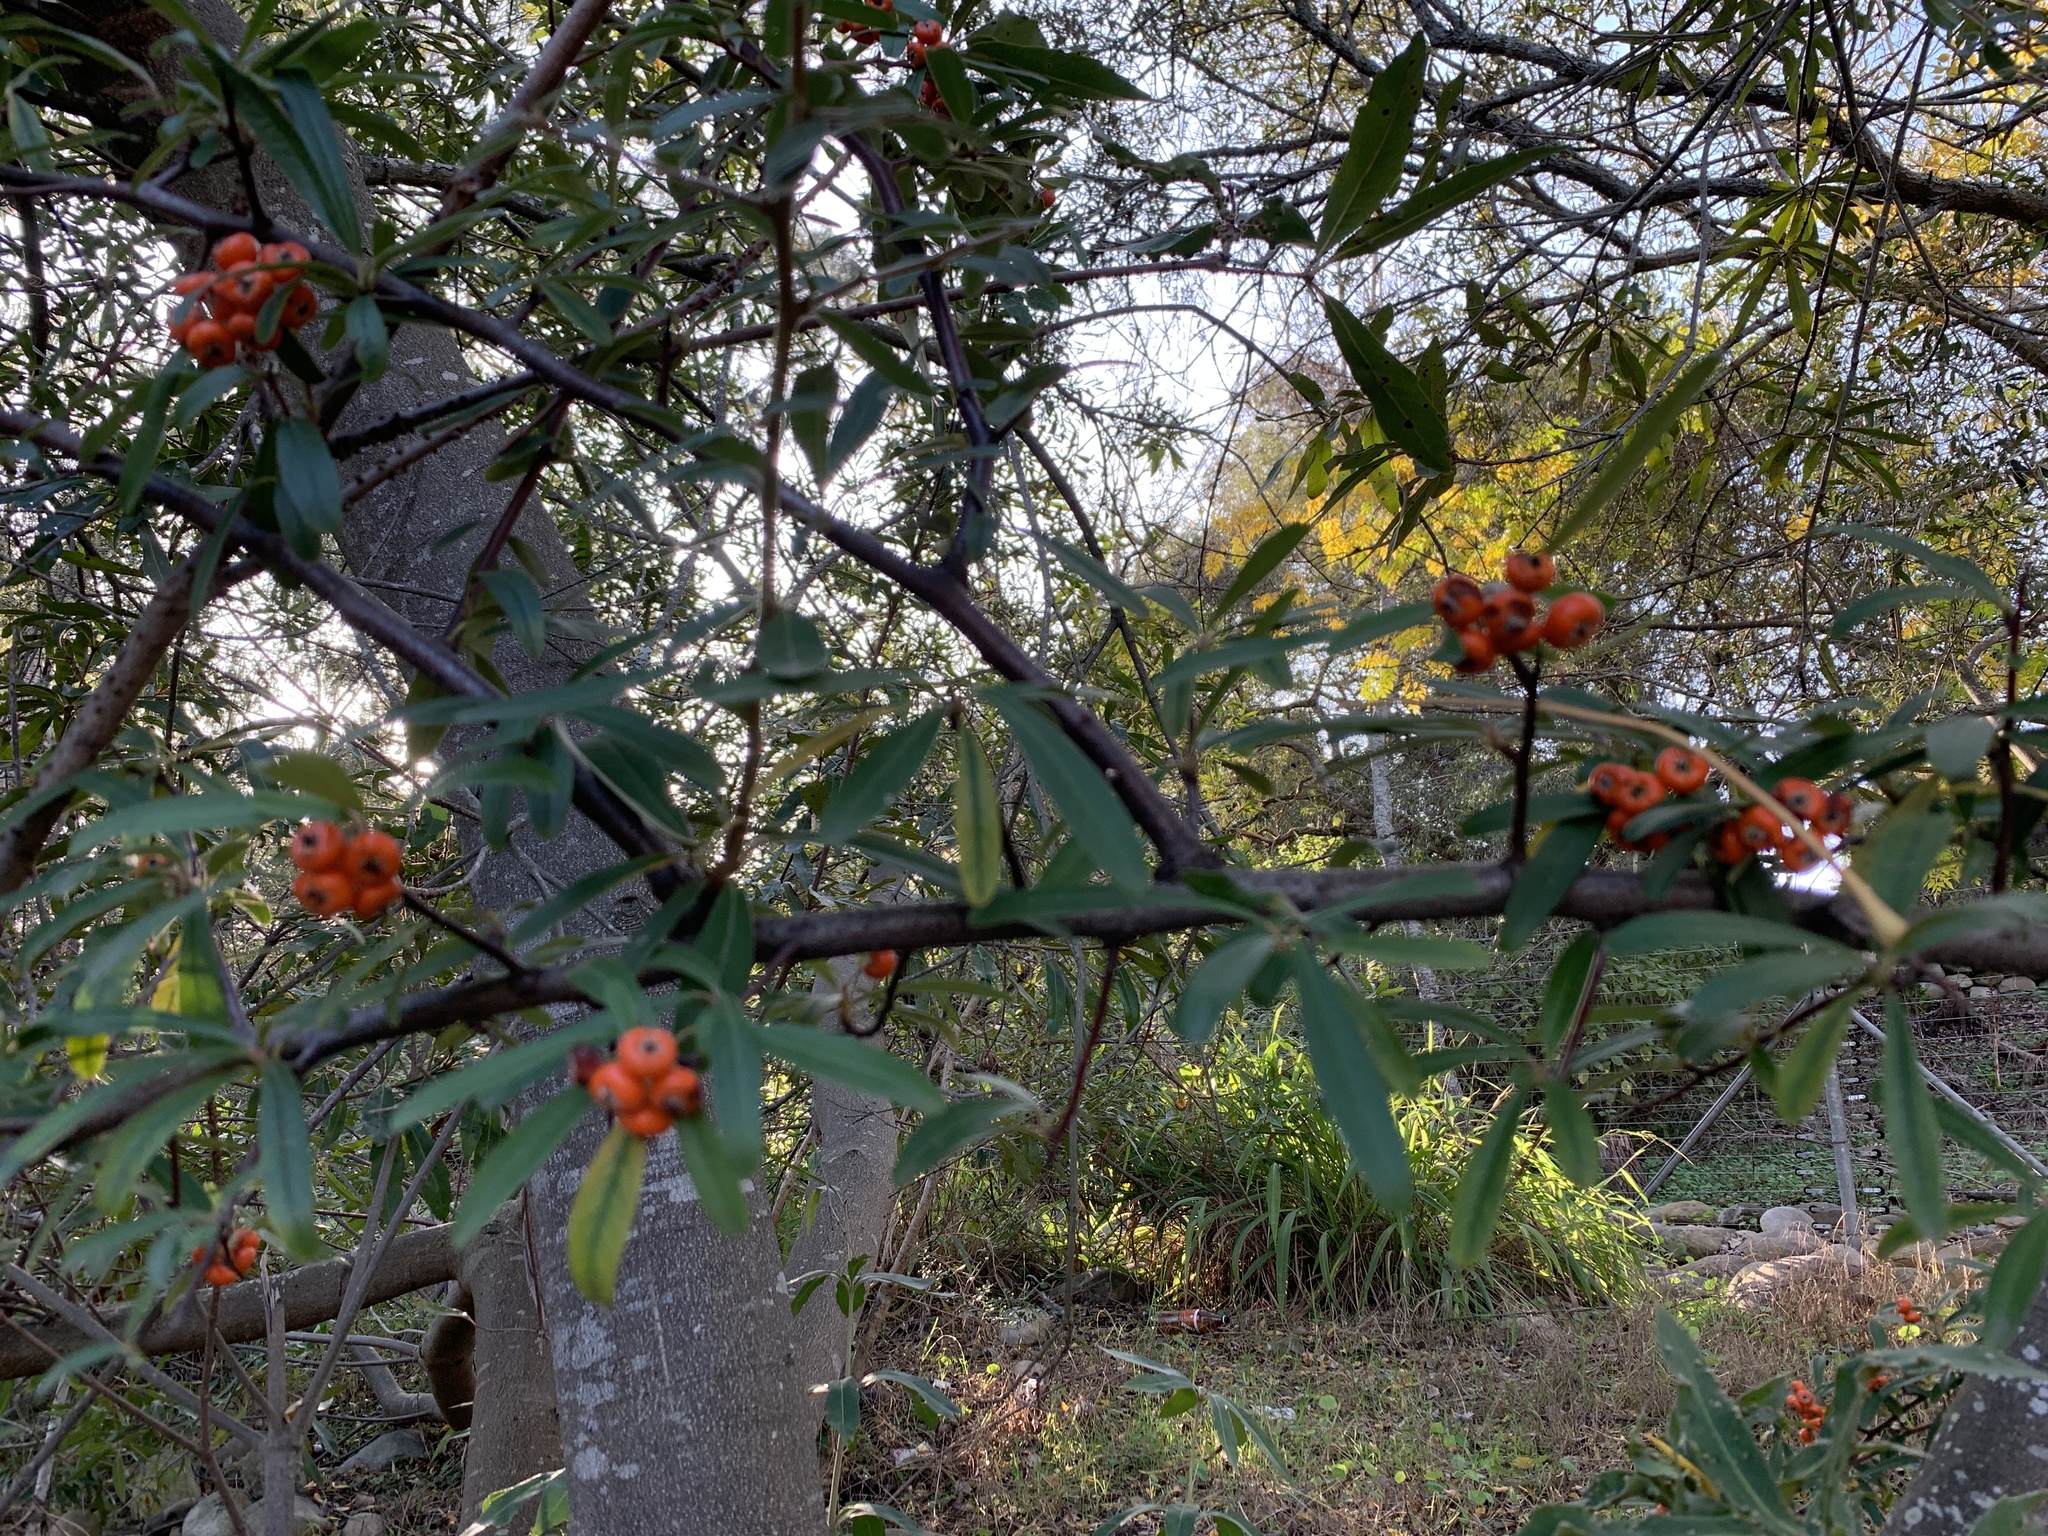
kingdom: Plantae
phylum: Tracheophyta
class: Magnoliopsida
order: Rosales
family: Rosaceae
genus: Pyracantha
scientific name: Pyracantha angustifolia
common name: Narrowleaf firethorn
